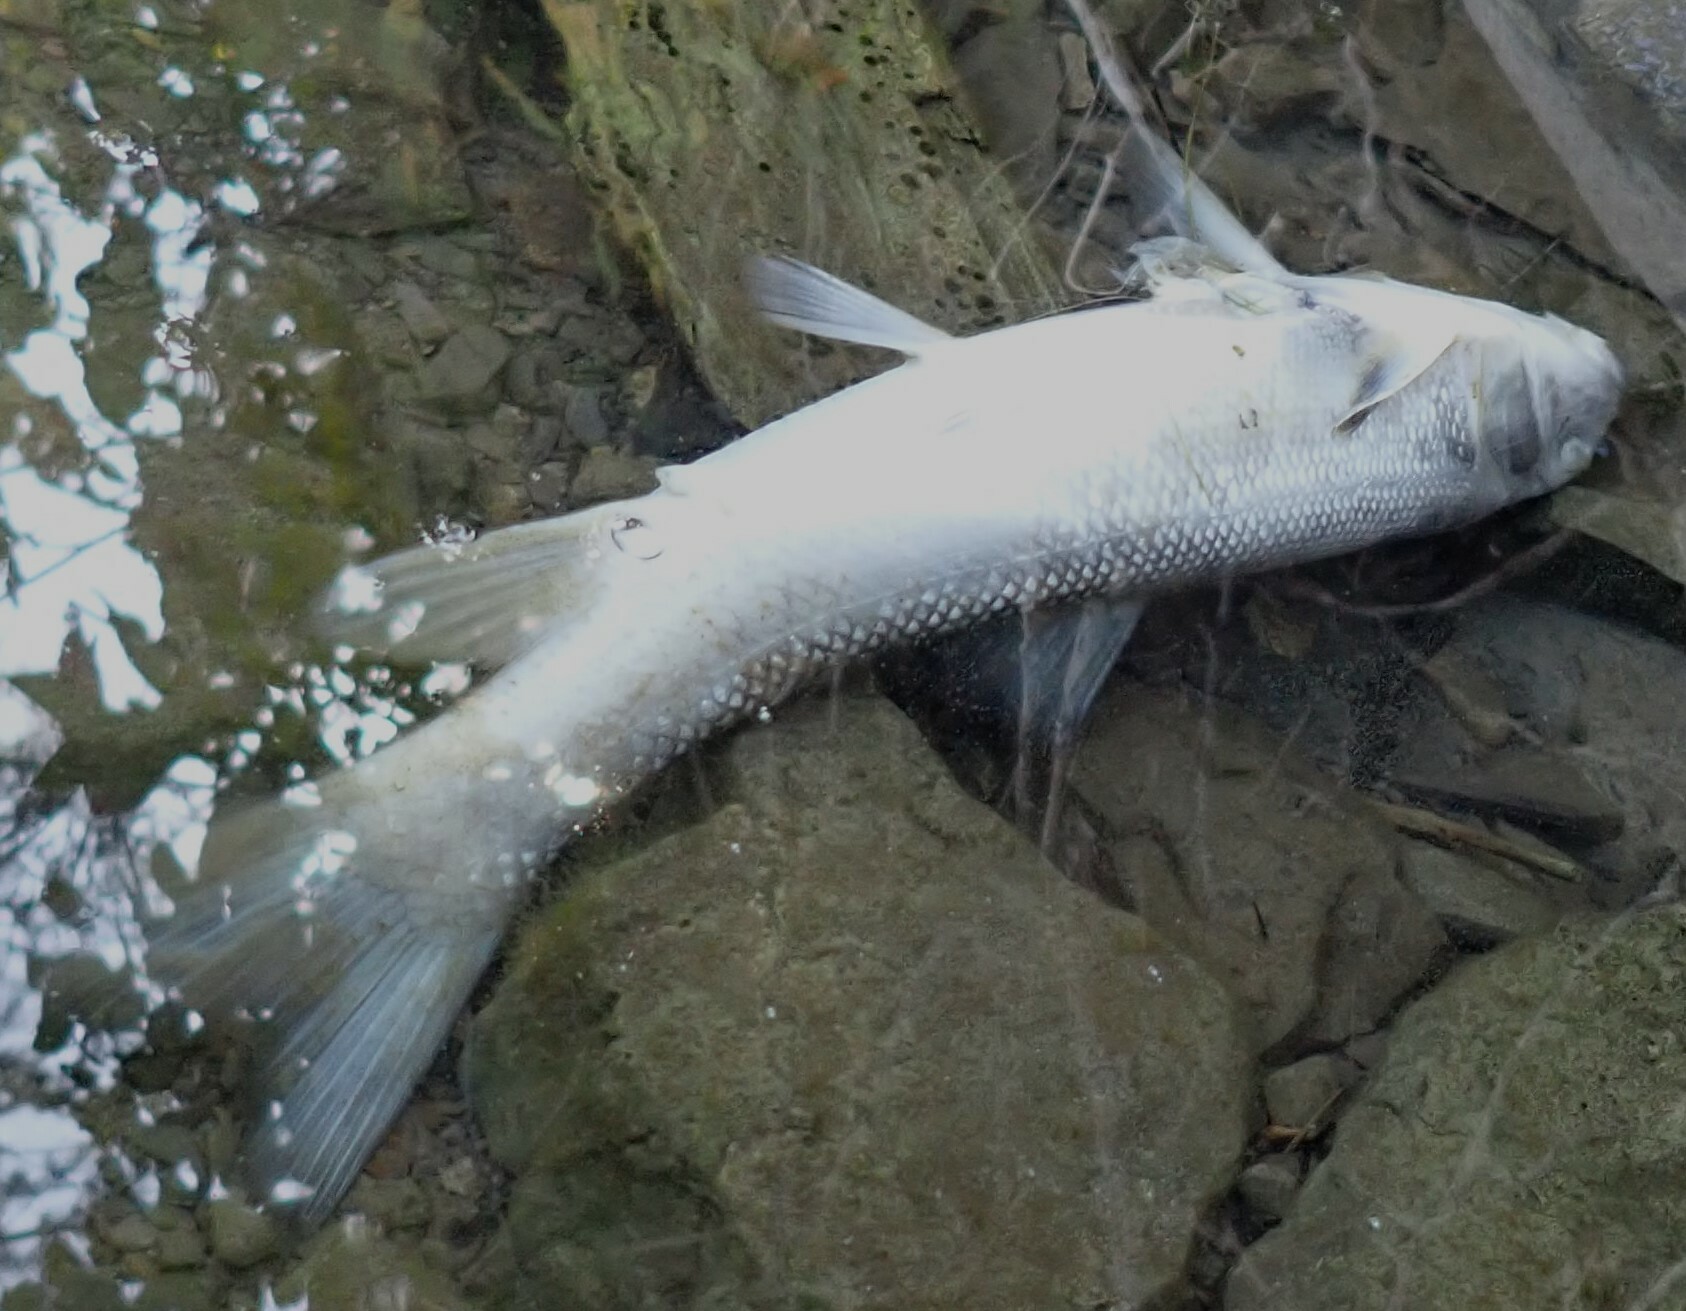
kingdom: Animalia
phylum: Chordata
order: Cypriniformes
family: Catostomidae
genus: Catostomus
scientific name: Catostomus commersonii
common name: White sucker
